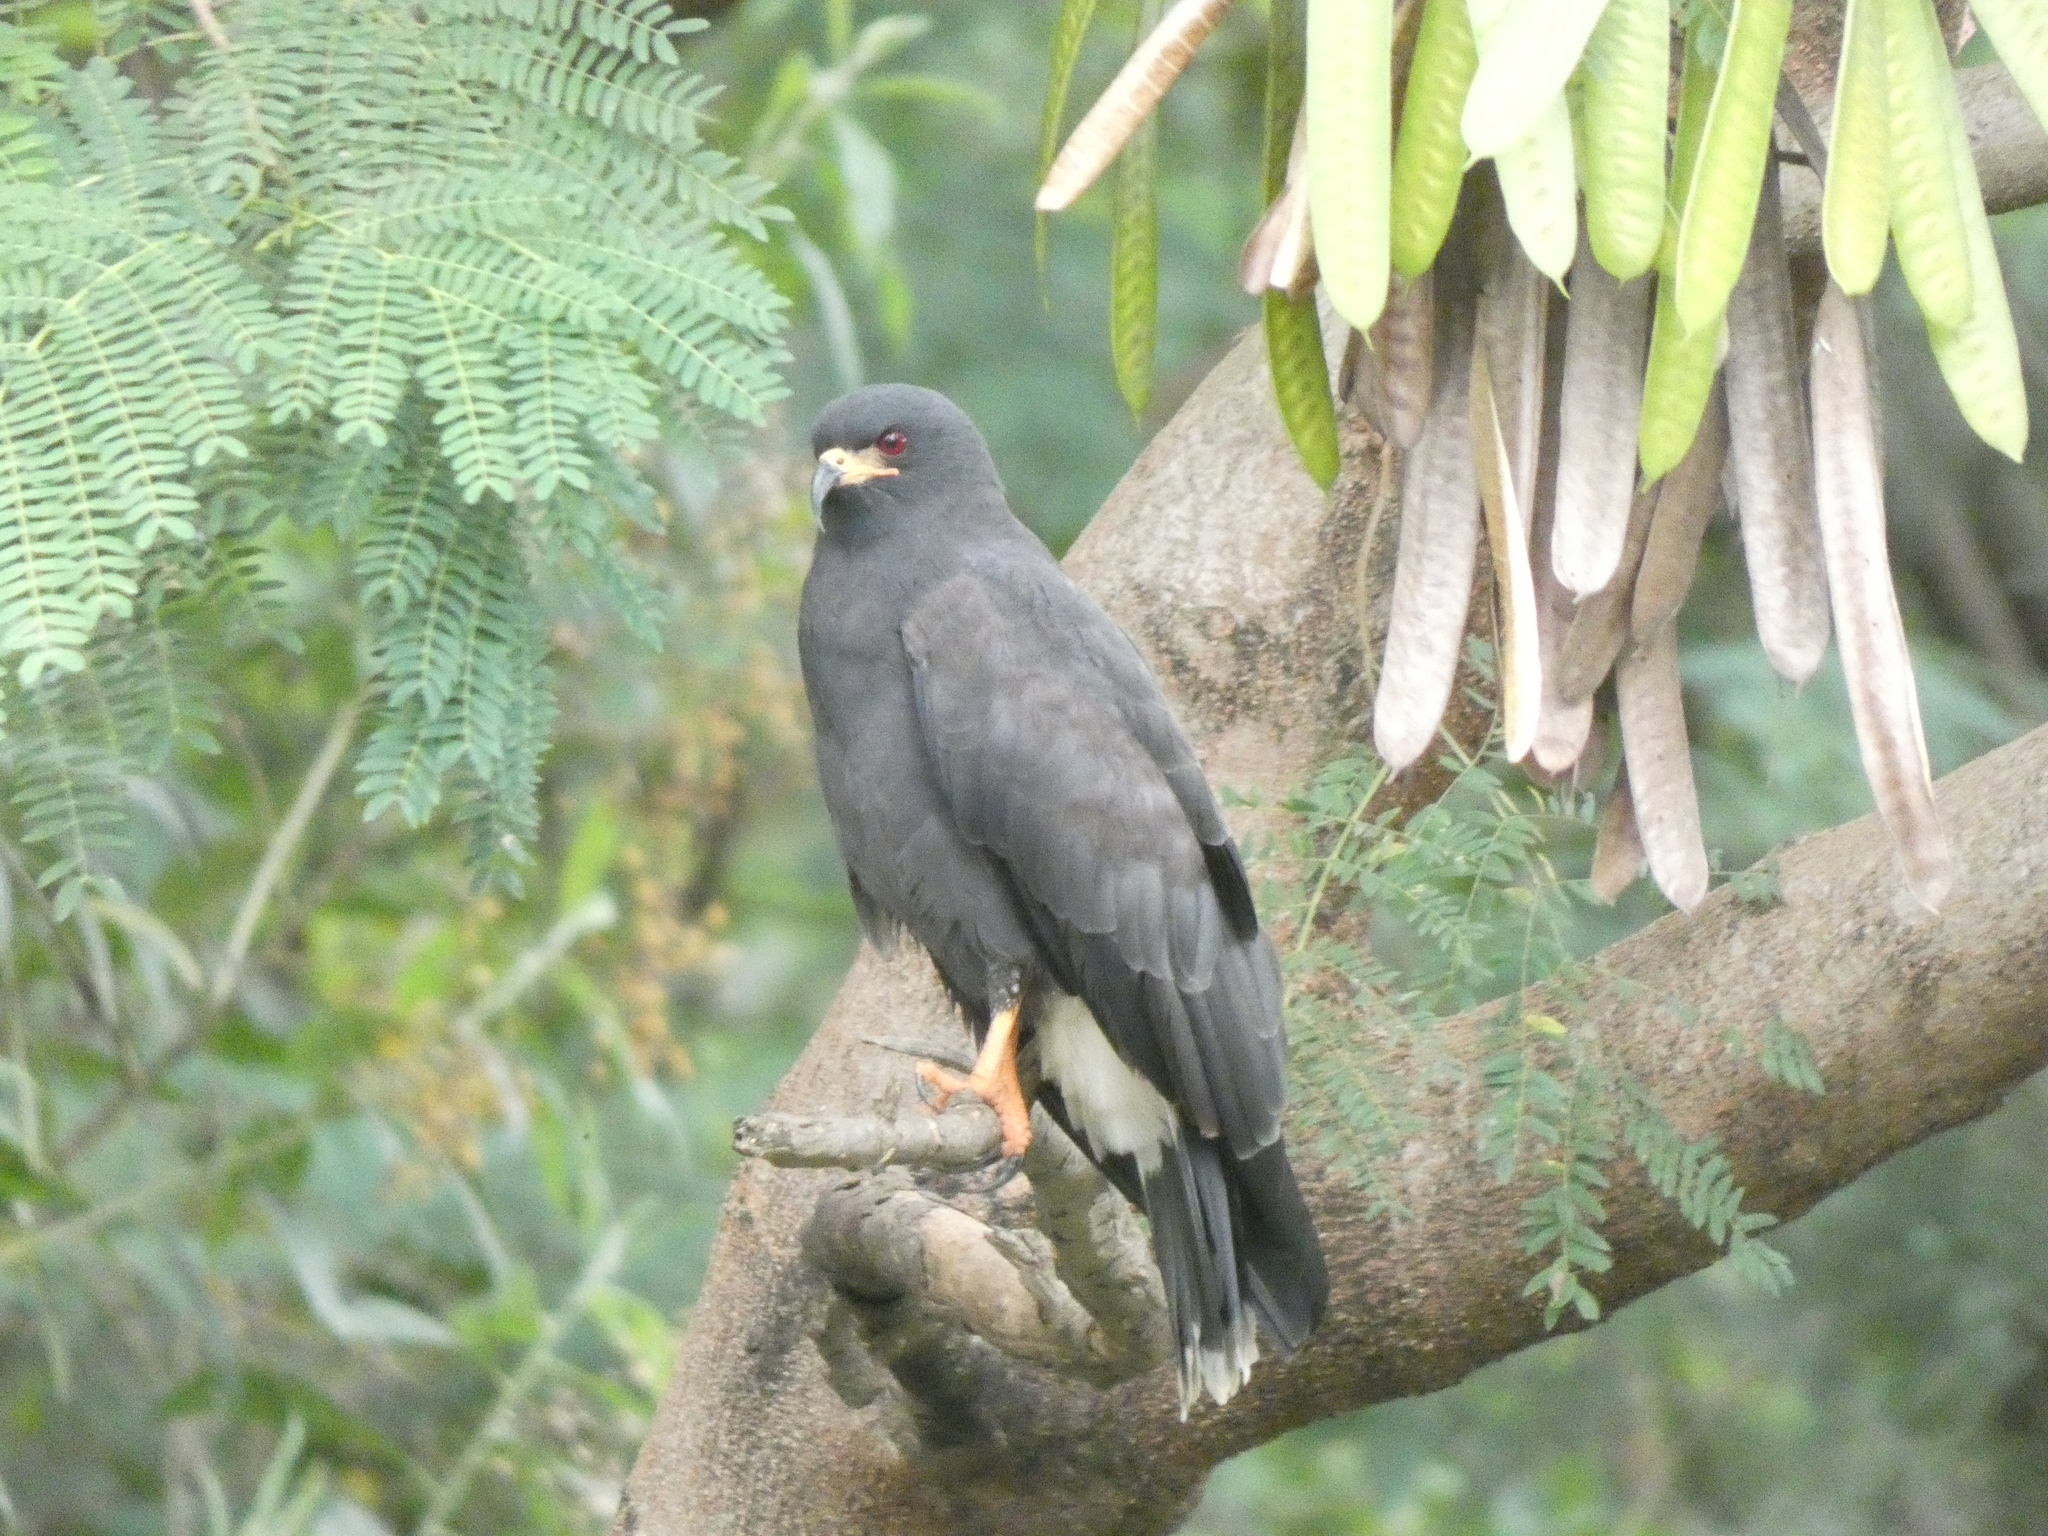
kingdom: Animalia
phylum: Chordata
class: Aves
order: Accipitriformes
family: Accipitridae
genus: Rostrhamus
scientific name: Rostrhamus sociabilis
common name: Snail kite
